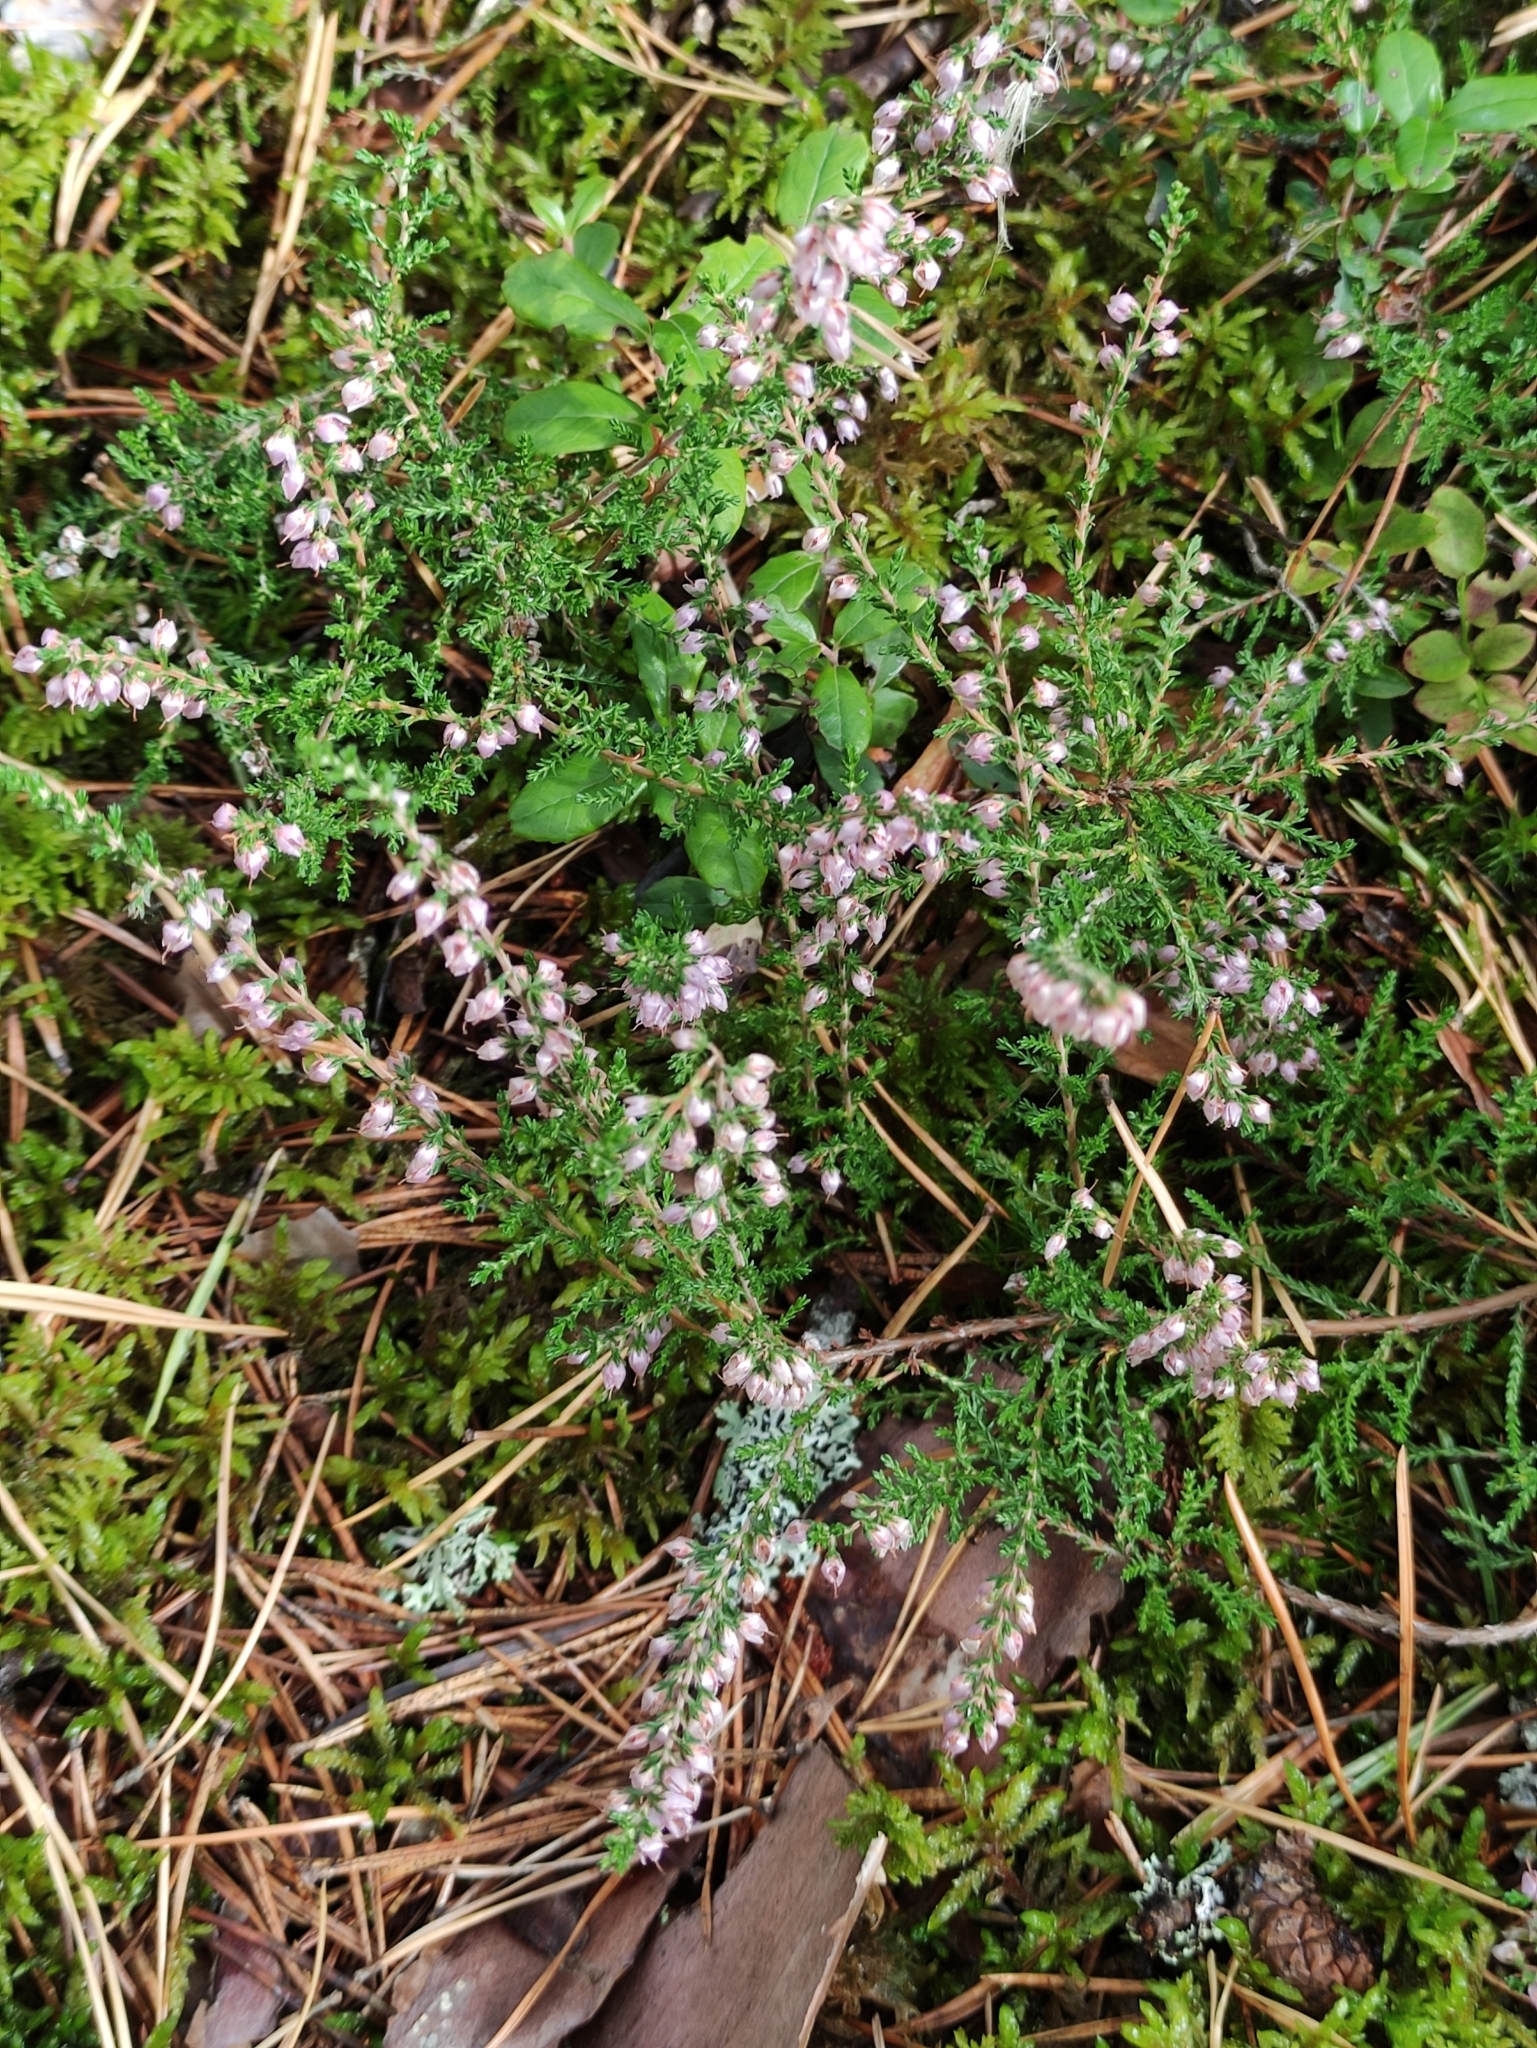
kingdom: Plantae
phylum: Tracheophyta
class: Magnoliopsida
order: Ericales
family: Ericaceae
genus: Calluna
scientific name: Calluna vulgaris
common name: Heather
